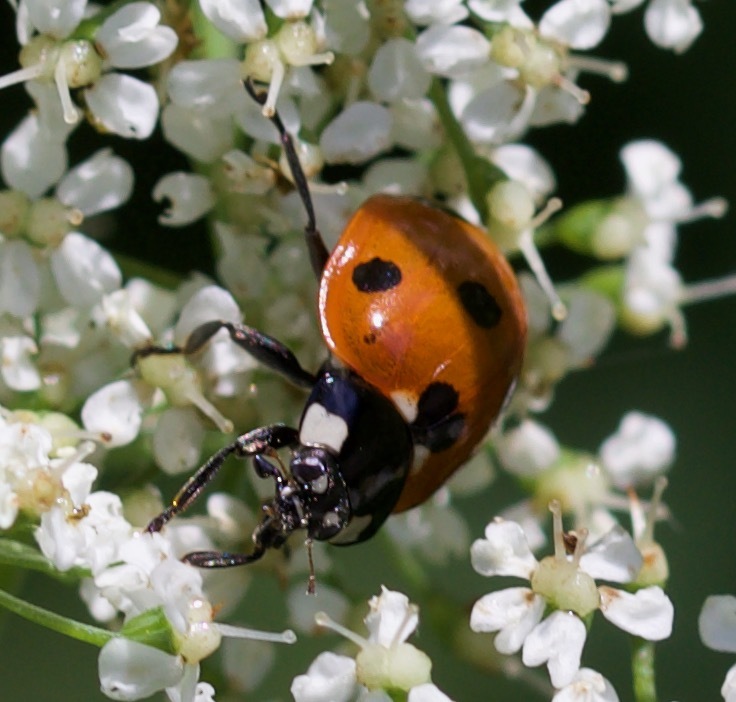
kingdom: Animalia
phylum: Arthropoda
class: Insecta
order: Coleoptera
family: Coccinellidae
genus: Coccinella
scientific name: Coccinella septempunctata
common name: Sevenspotted lady beetle
